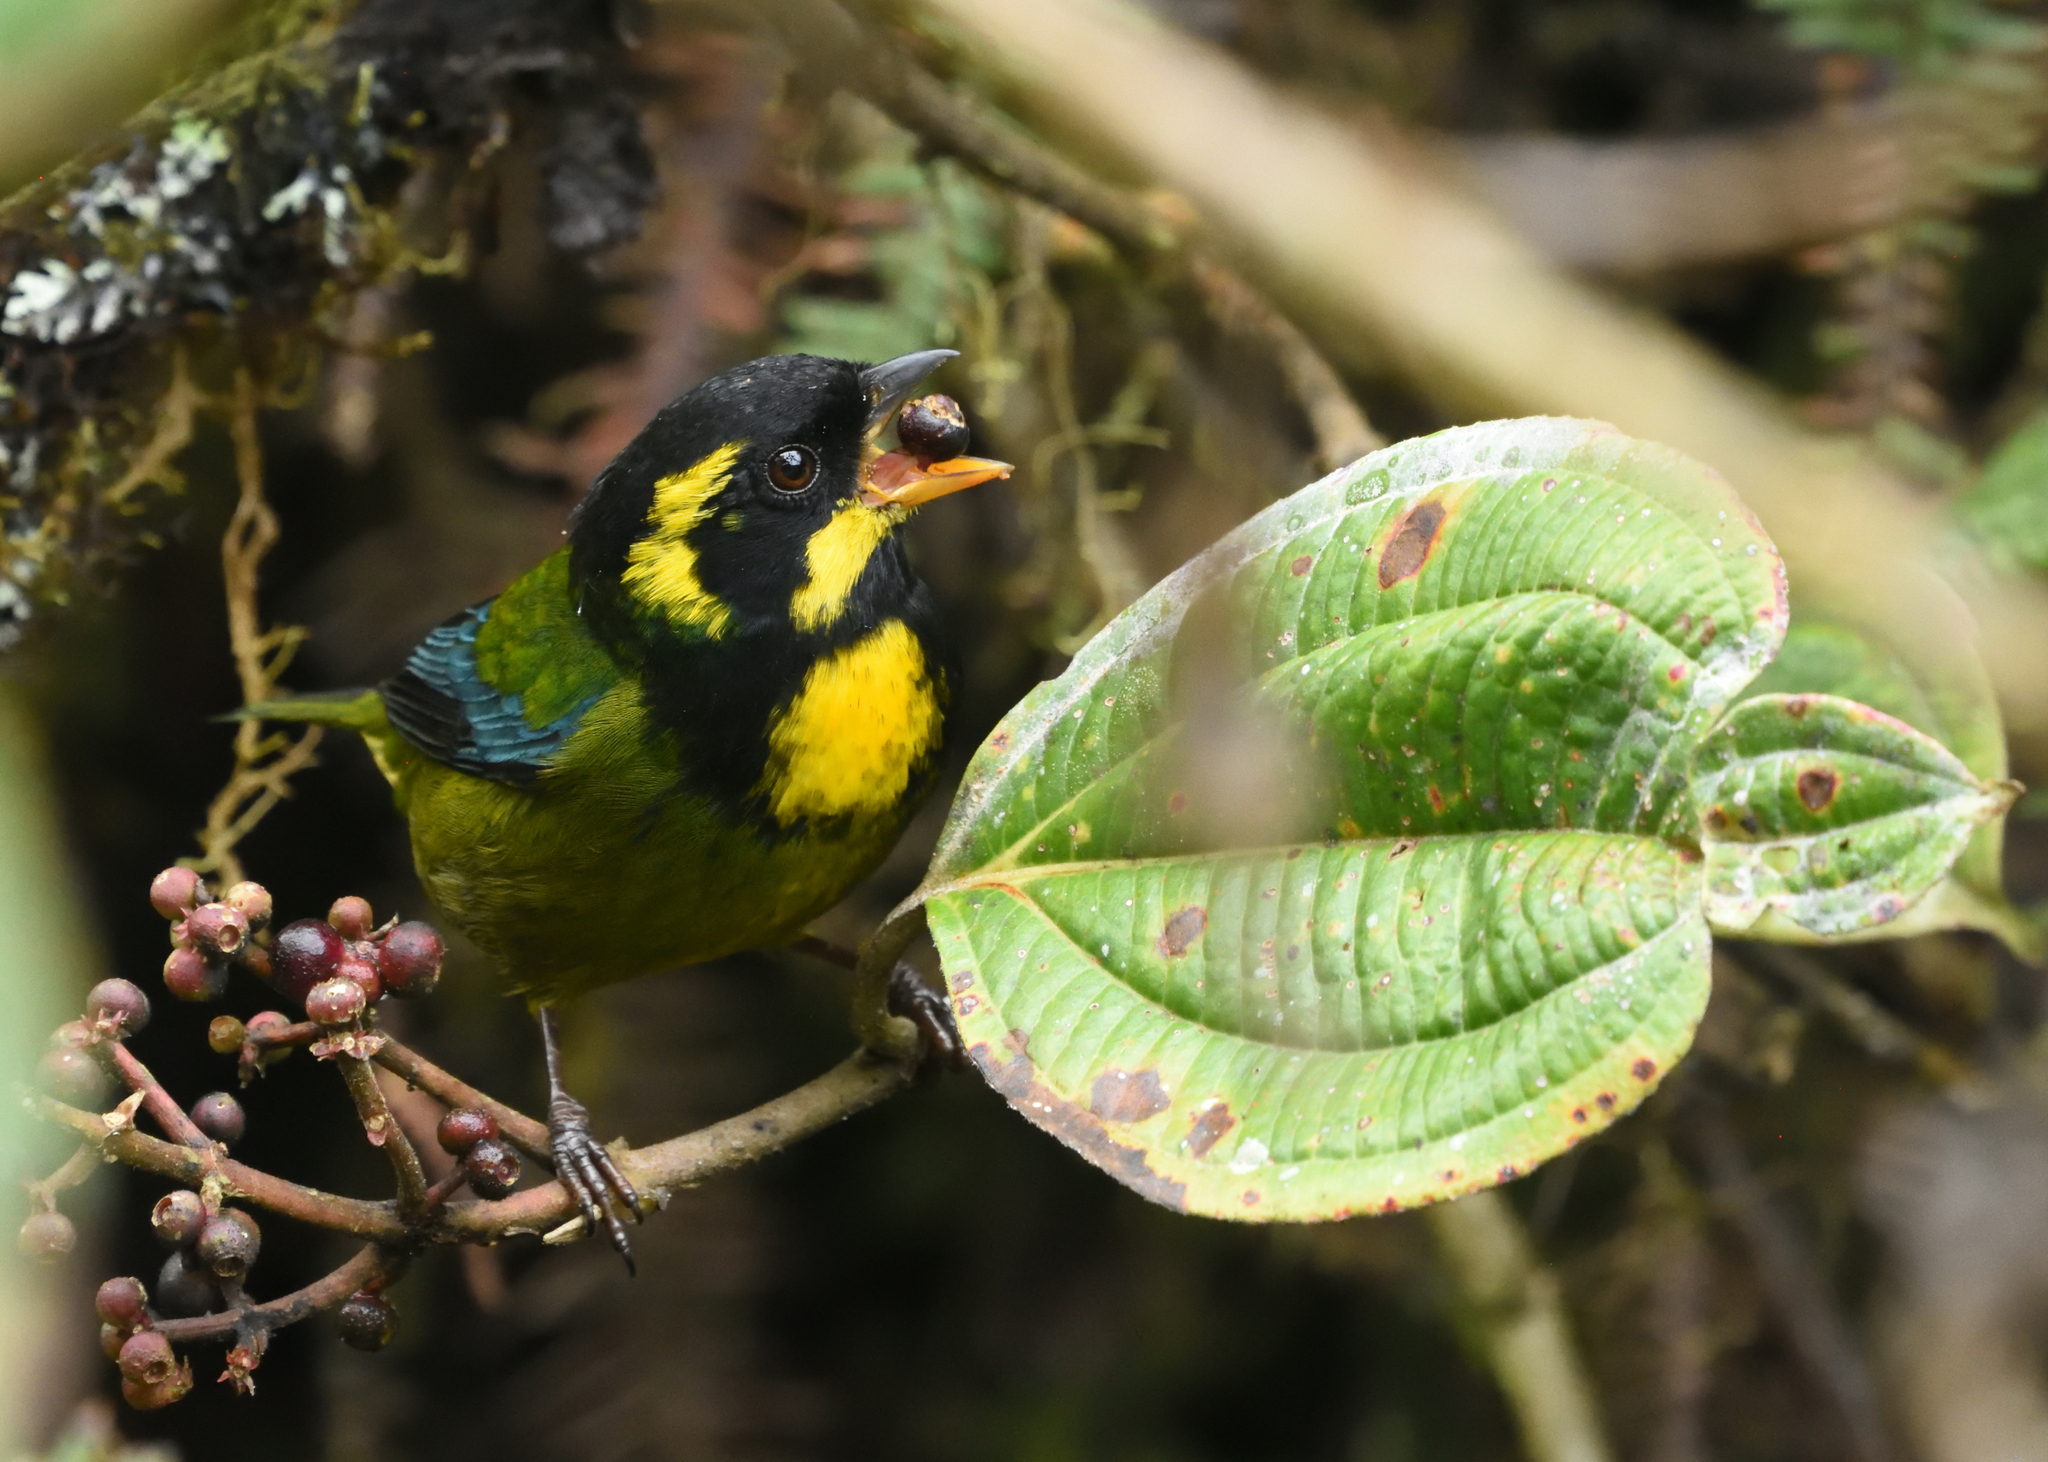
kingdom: Animalia
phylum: Chordata
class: Aves
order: Passeriformes
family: Thraupidae
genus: Bangsia
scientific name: Bangsia aureocincta
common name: Gold-ringed tanager
